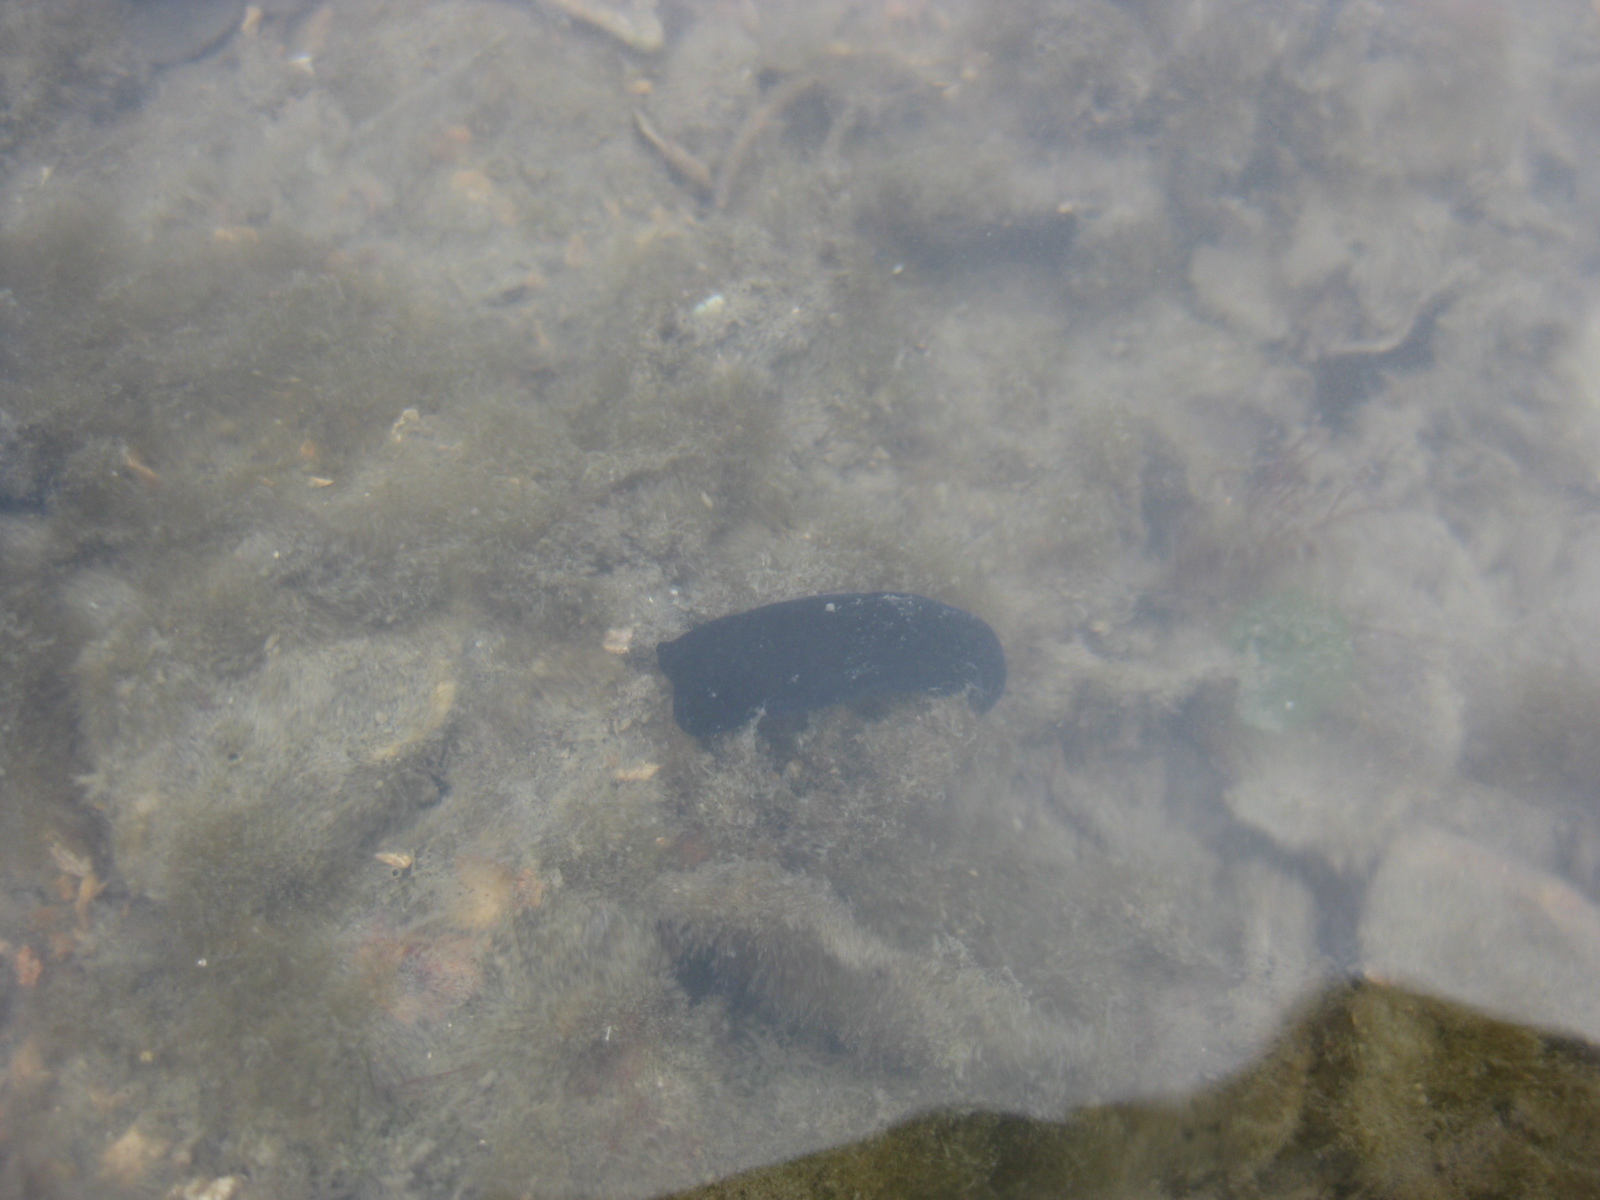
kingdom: Animalia
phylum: Mollusca
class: Gastropoda
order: Cephalaspidea
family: Aglajidae
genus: Melanochlamys
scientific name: Melanochlamys cylindrica
